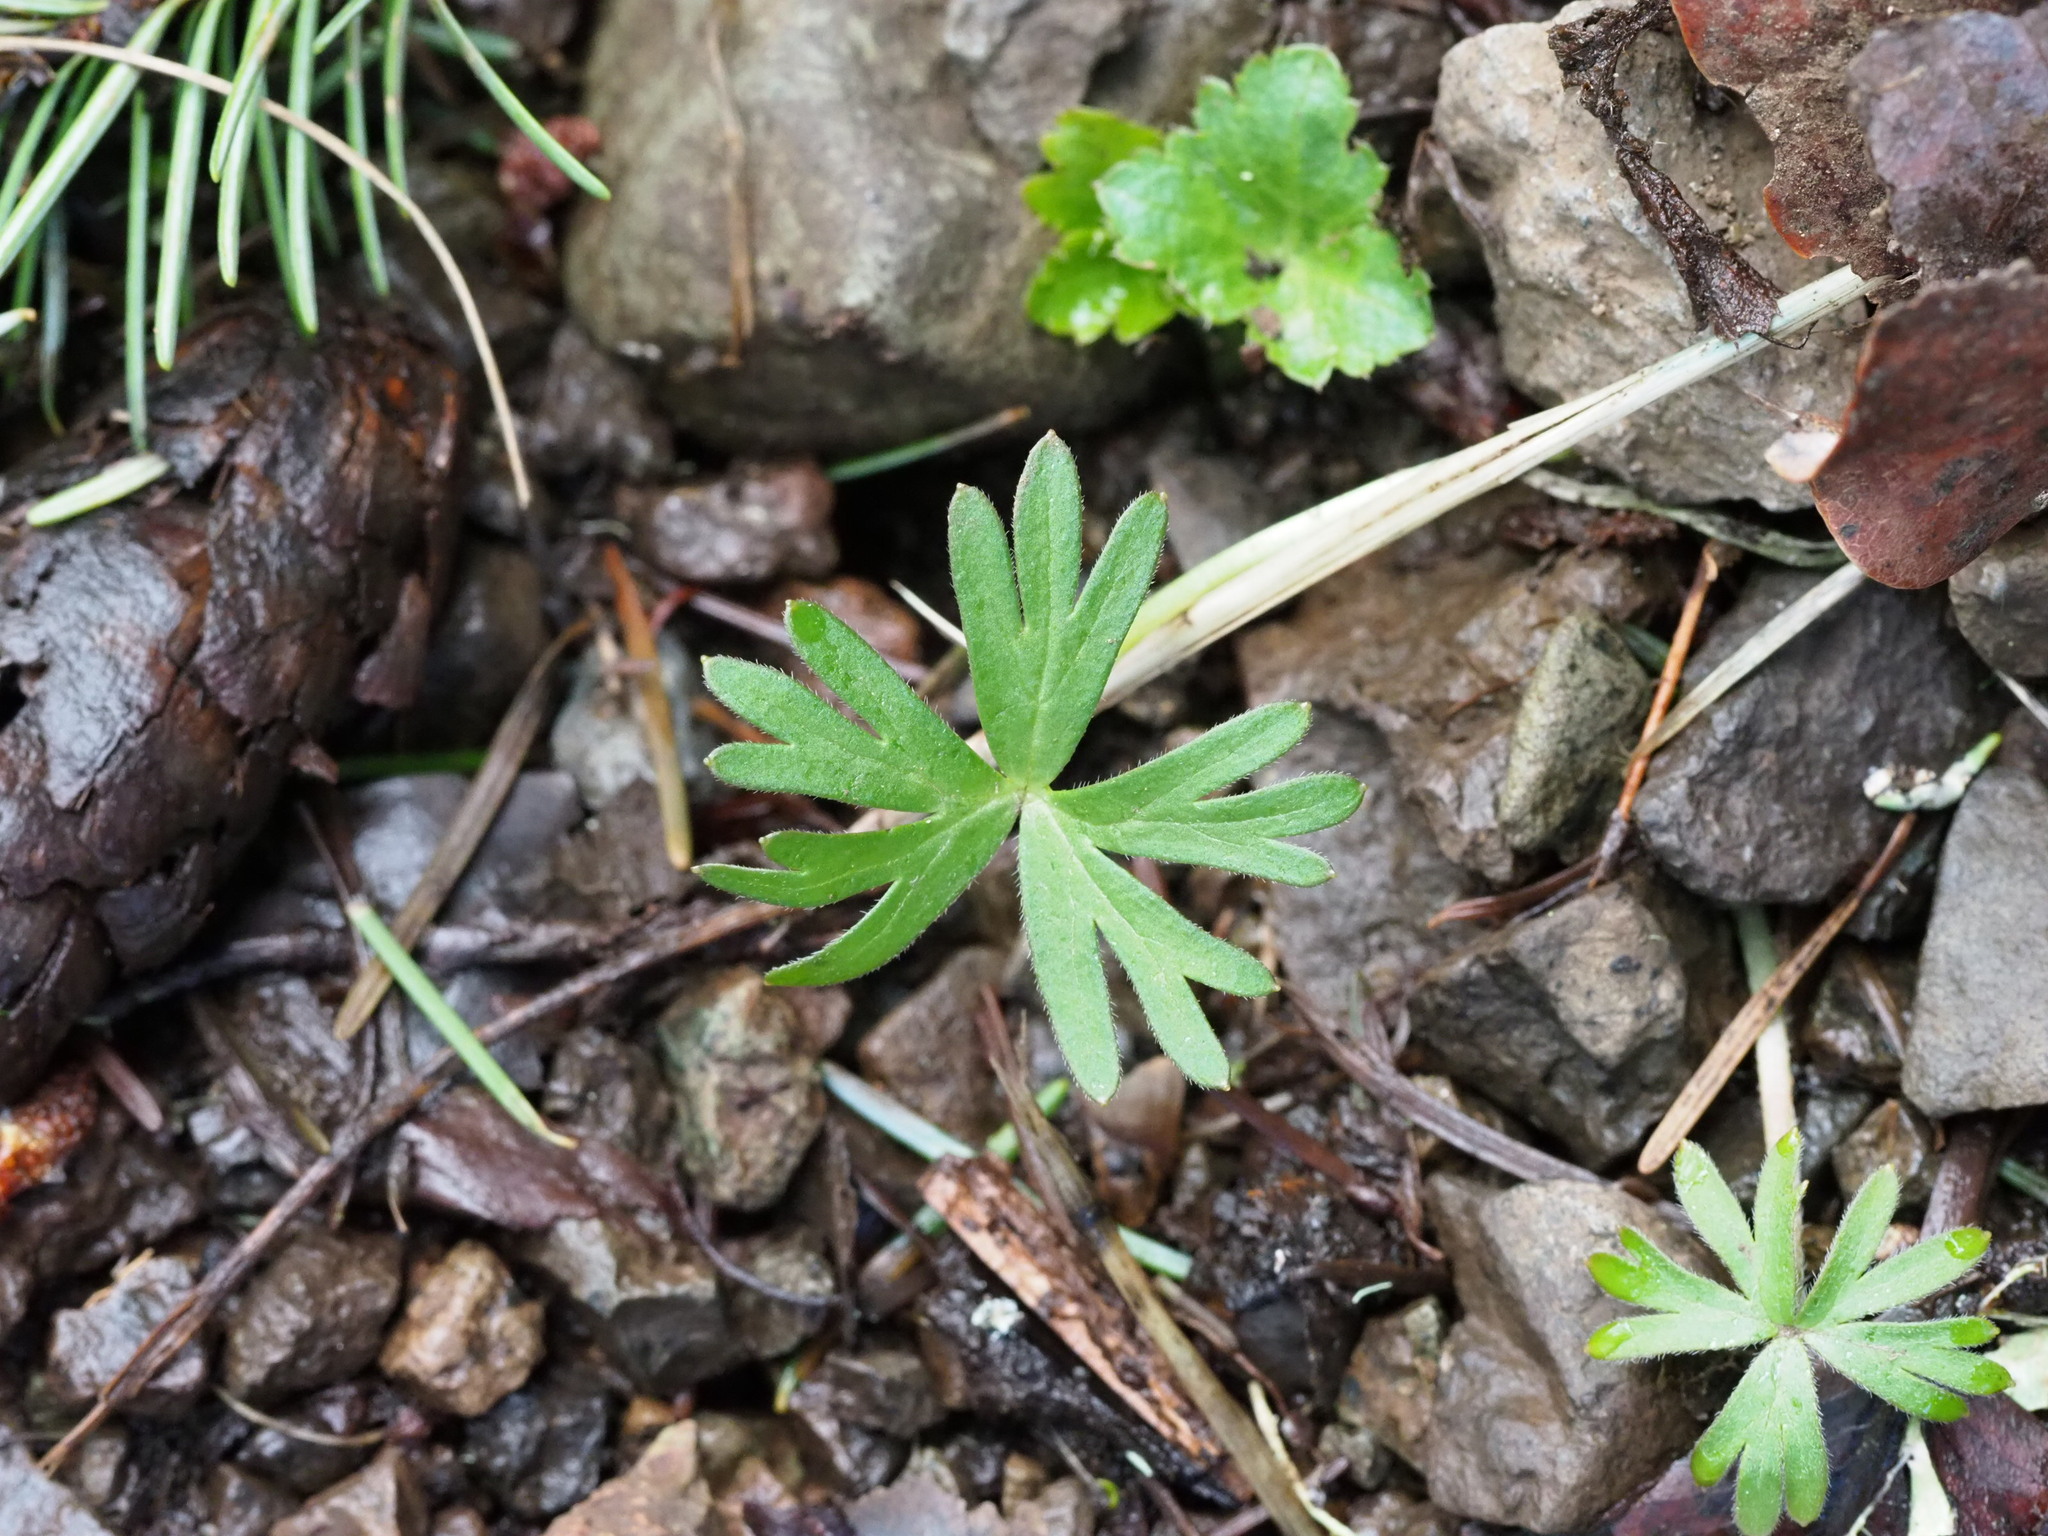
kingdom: Plantae
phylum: Tracheophyta
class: Magnoliopsida
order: Ranunculales
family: Ranunculaceae
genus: Delphinium
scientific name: Delphinium menziesii
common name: Menzies's larkspur
